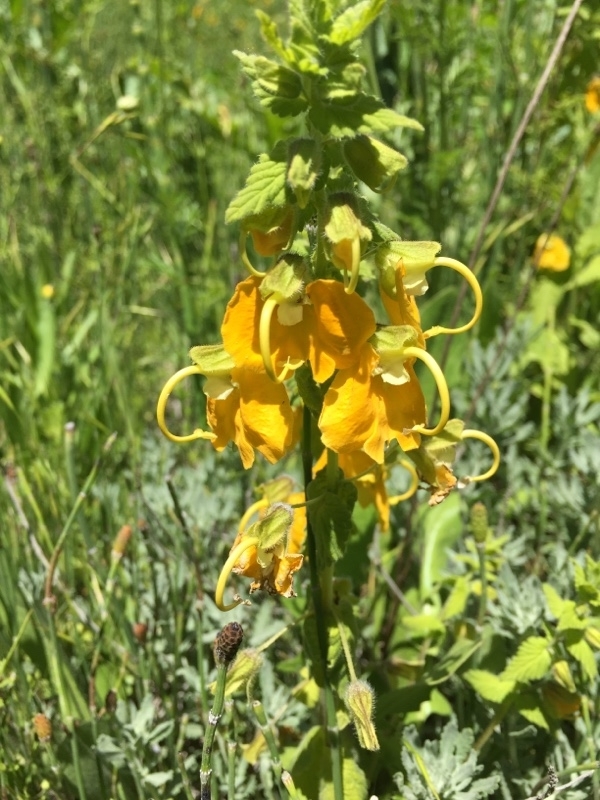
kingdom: Plantae
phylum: Tracheophyta
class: Magnoliopsida
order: Lamiales
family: Orobanchaceae
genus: Rhynchocorys
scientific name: Rhynchocorys orientalis
